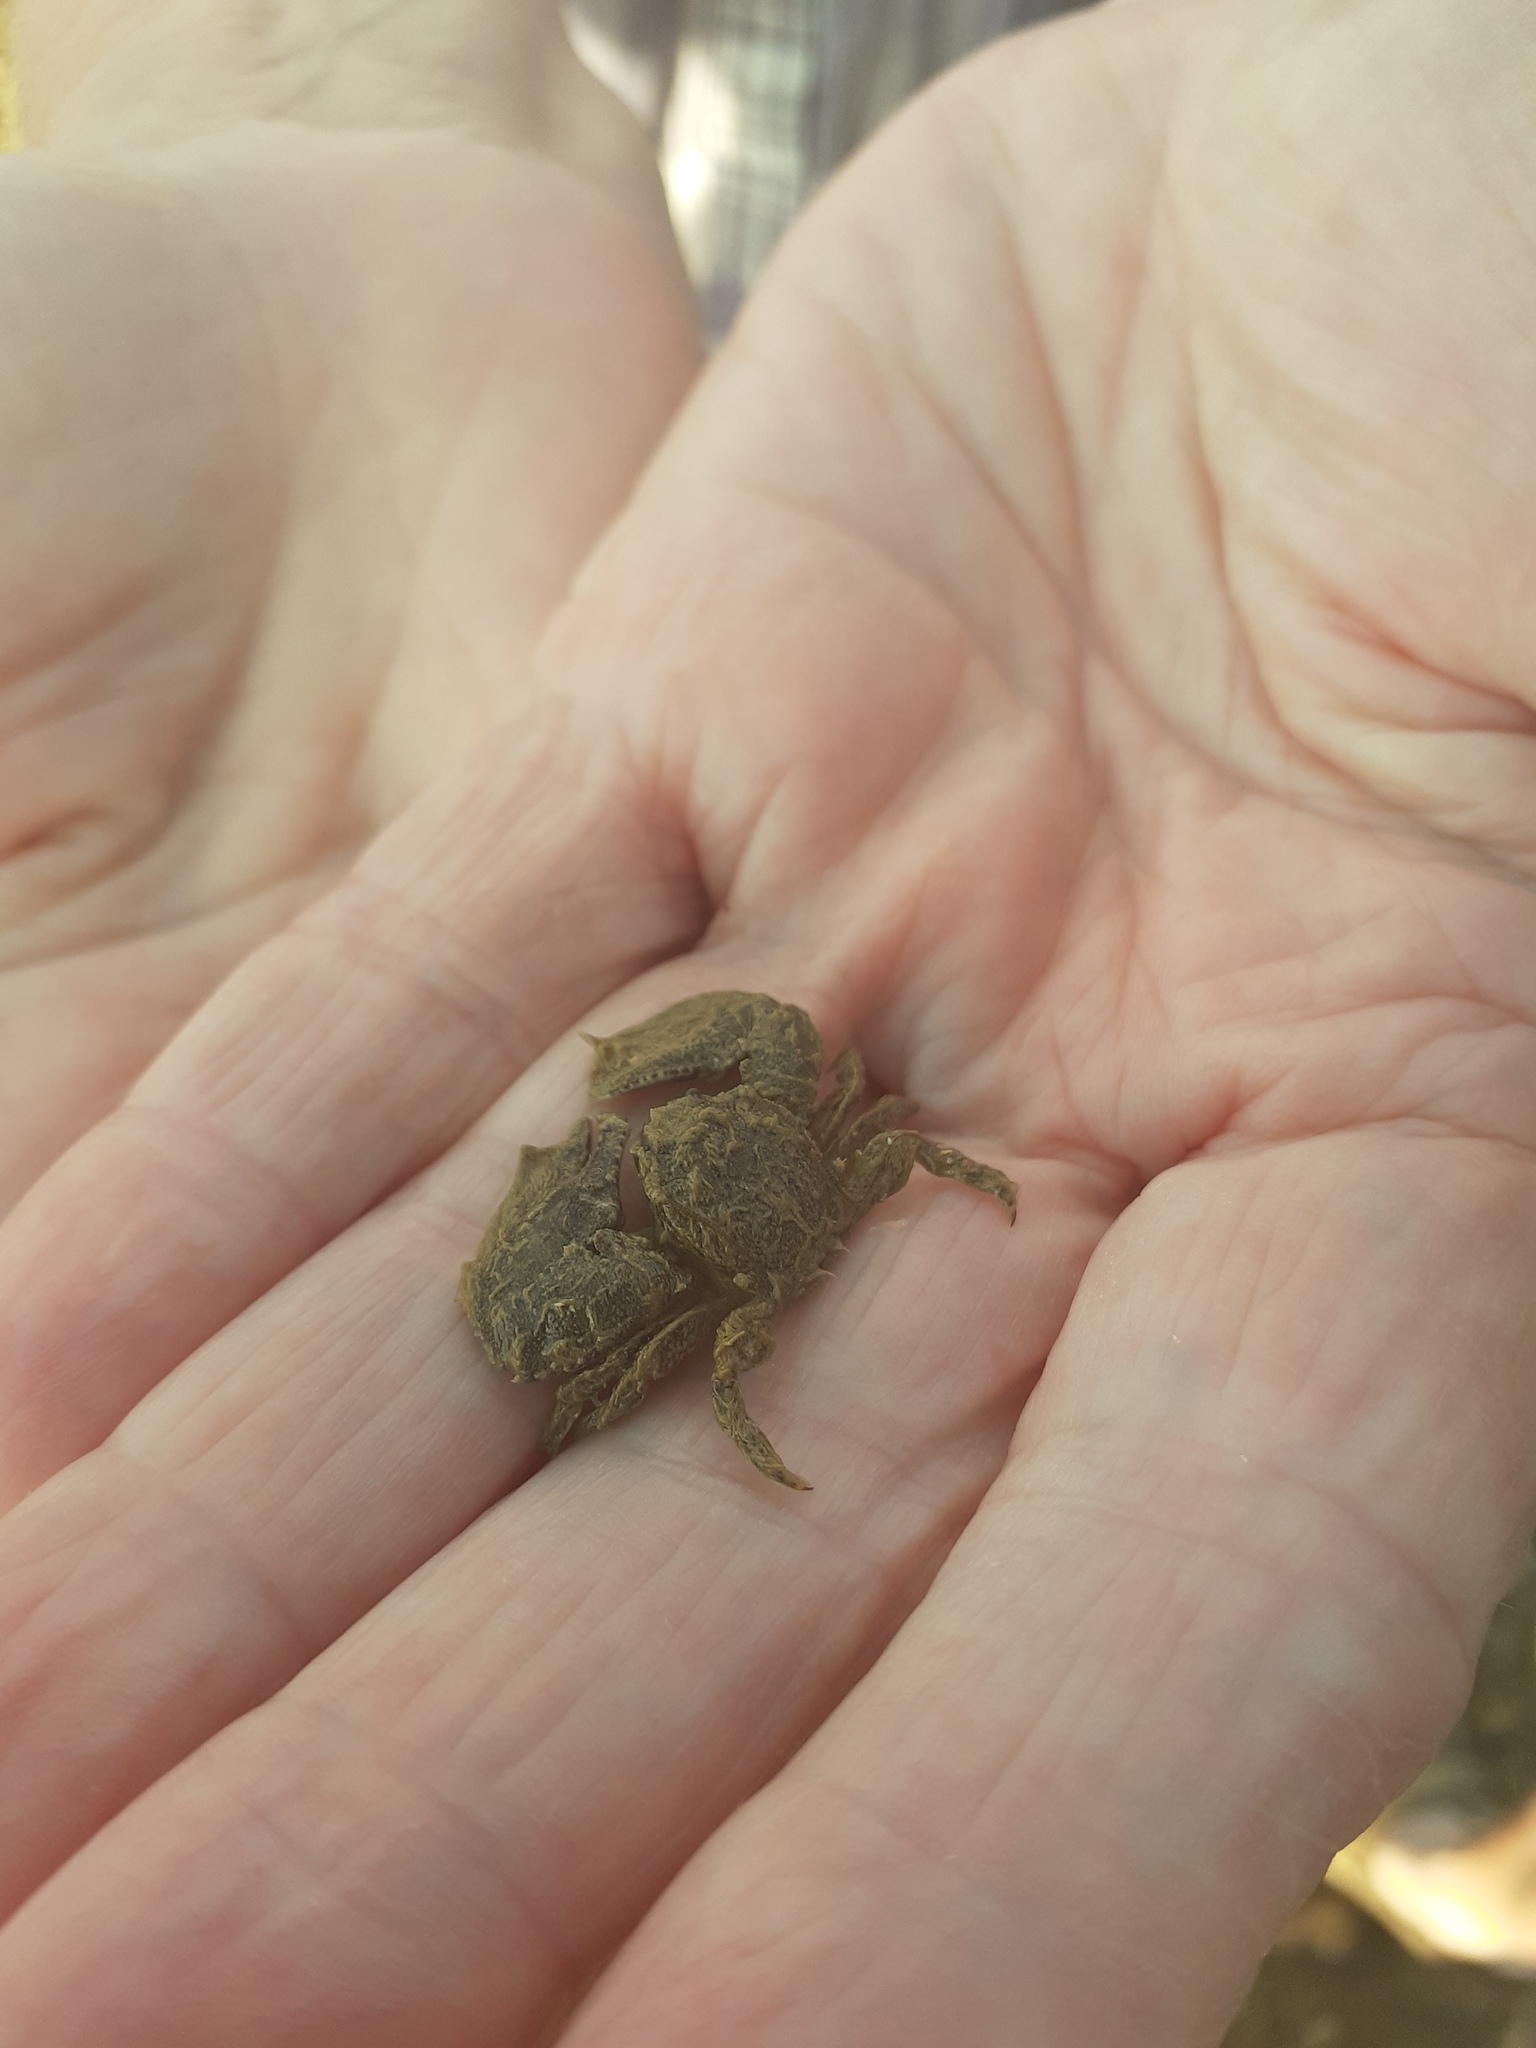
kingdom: Animalia
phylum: Arthropoda
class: Malacostraca
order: Decapoda
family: Porcellanidae
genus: Porcellana
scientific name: Porcellana platycheles
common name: Porcelain crab
